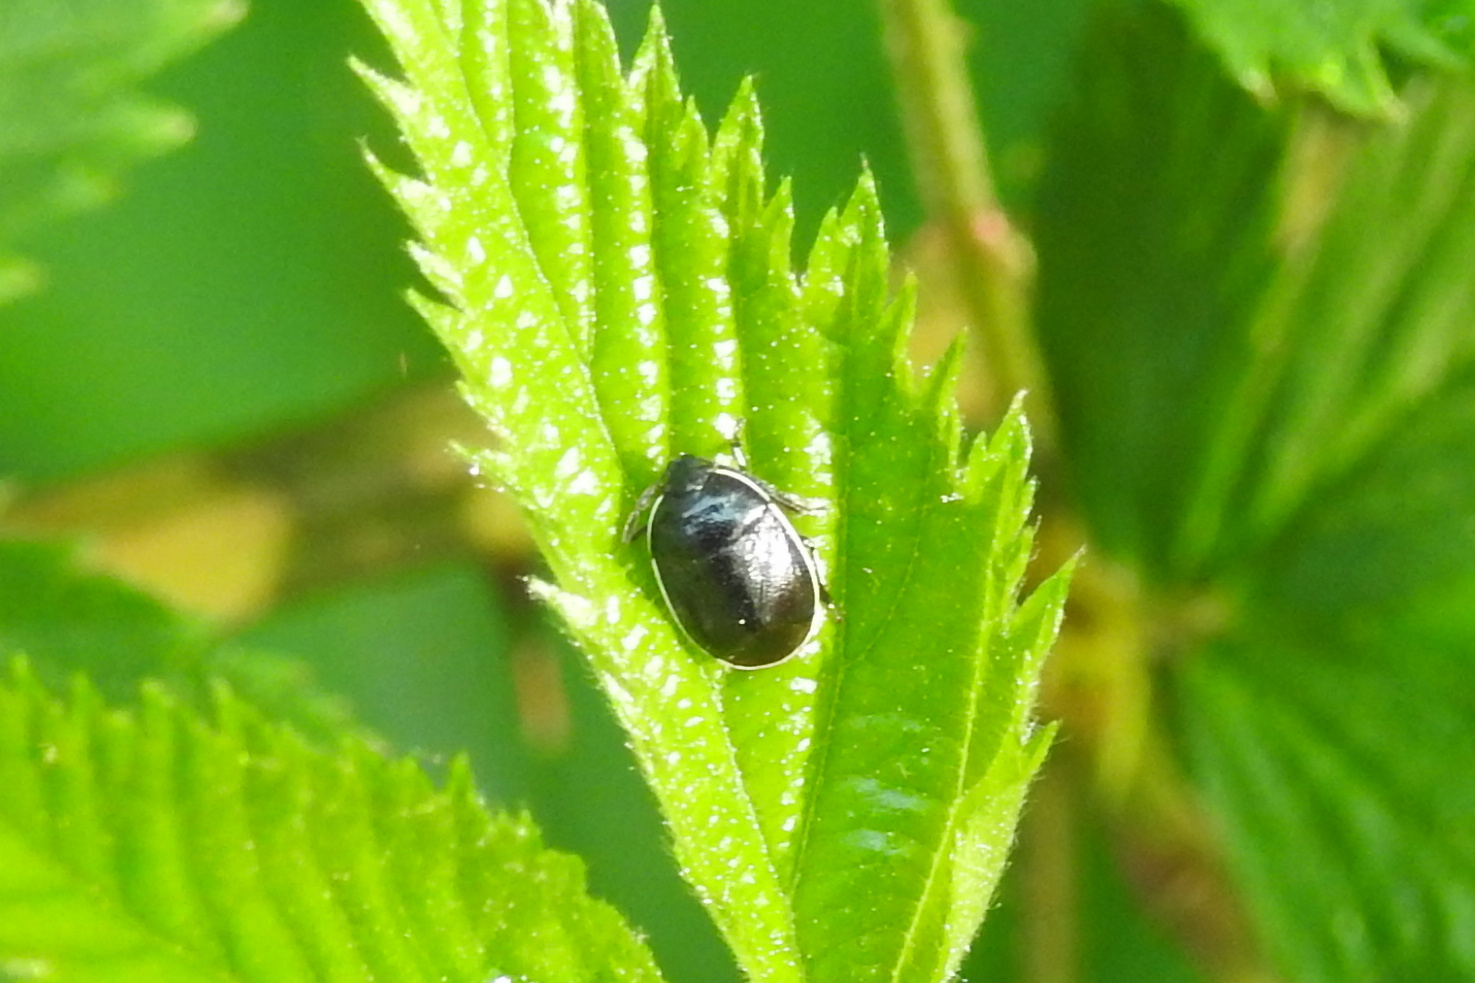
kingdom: Animalia
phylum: Arthropoda
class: Insecta
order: Hemiptera
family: Cydnidae
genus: Sehirus
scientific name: Sehirus cinctus
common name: White-margined burrower bug
